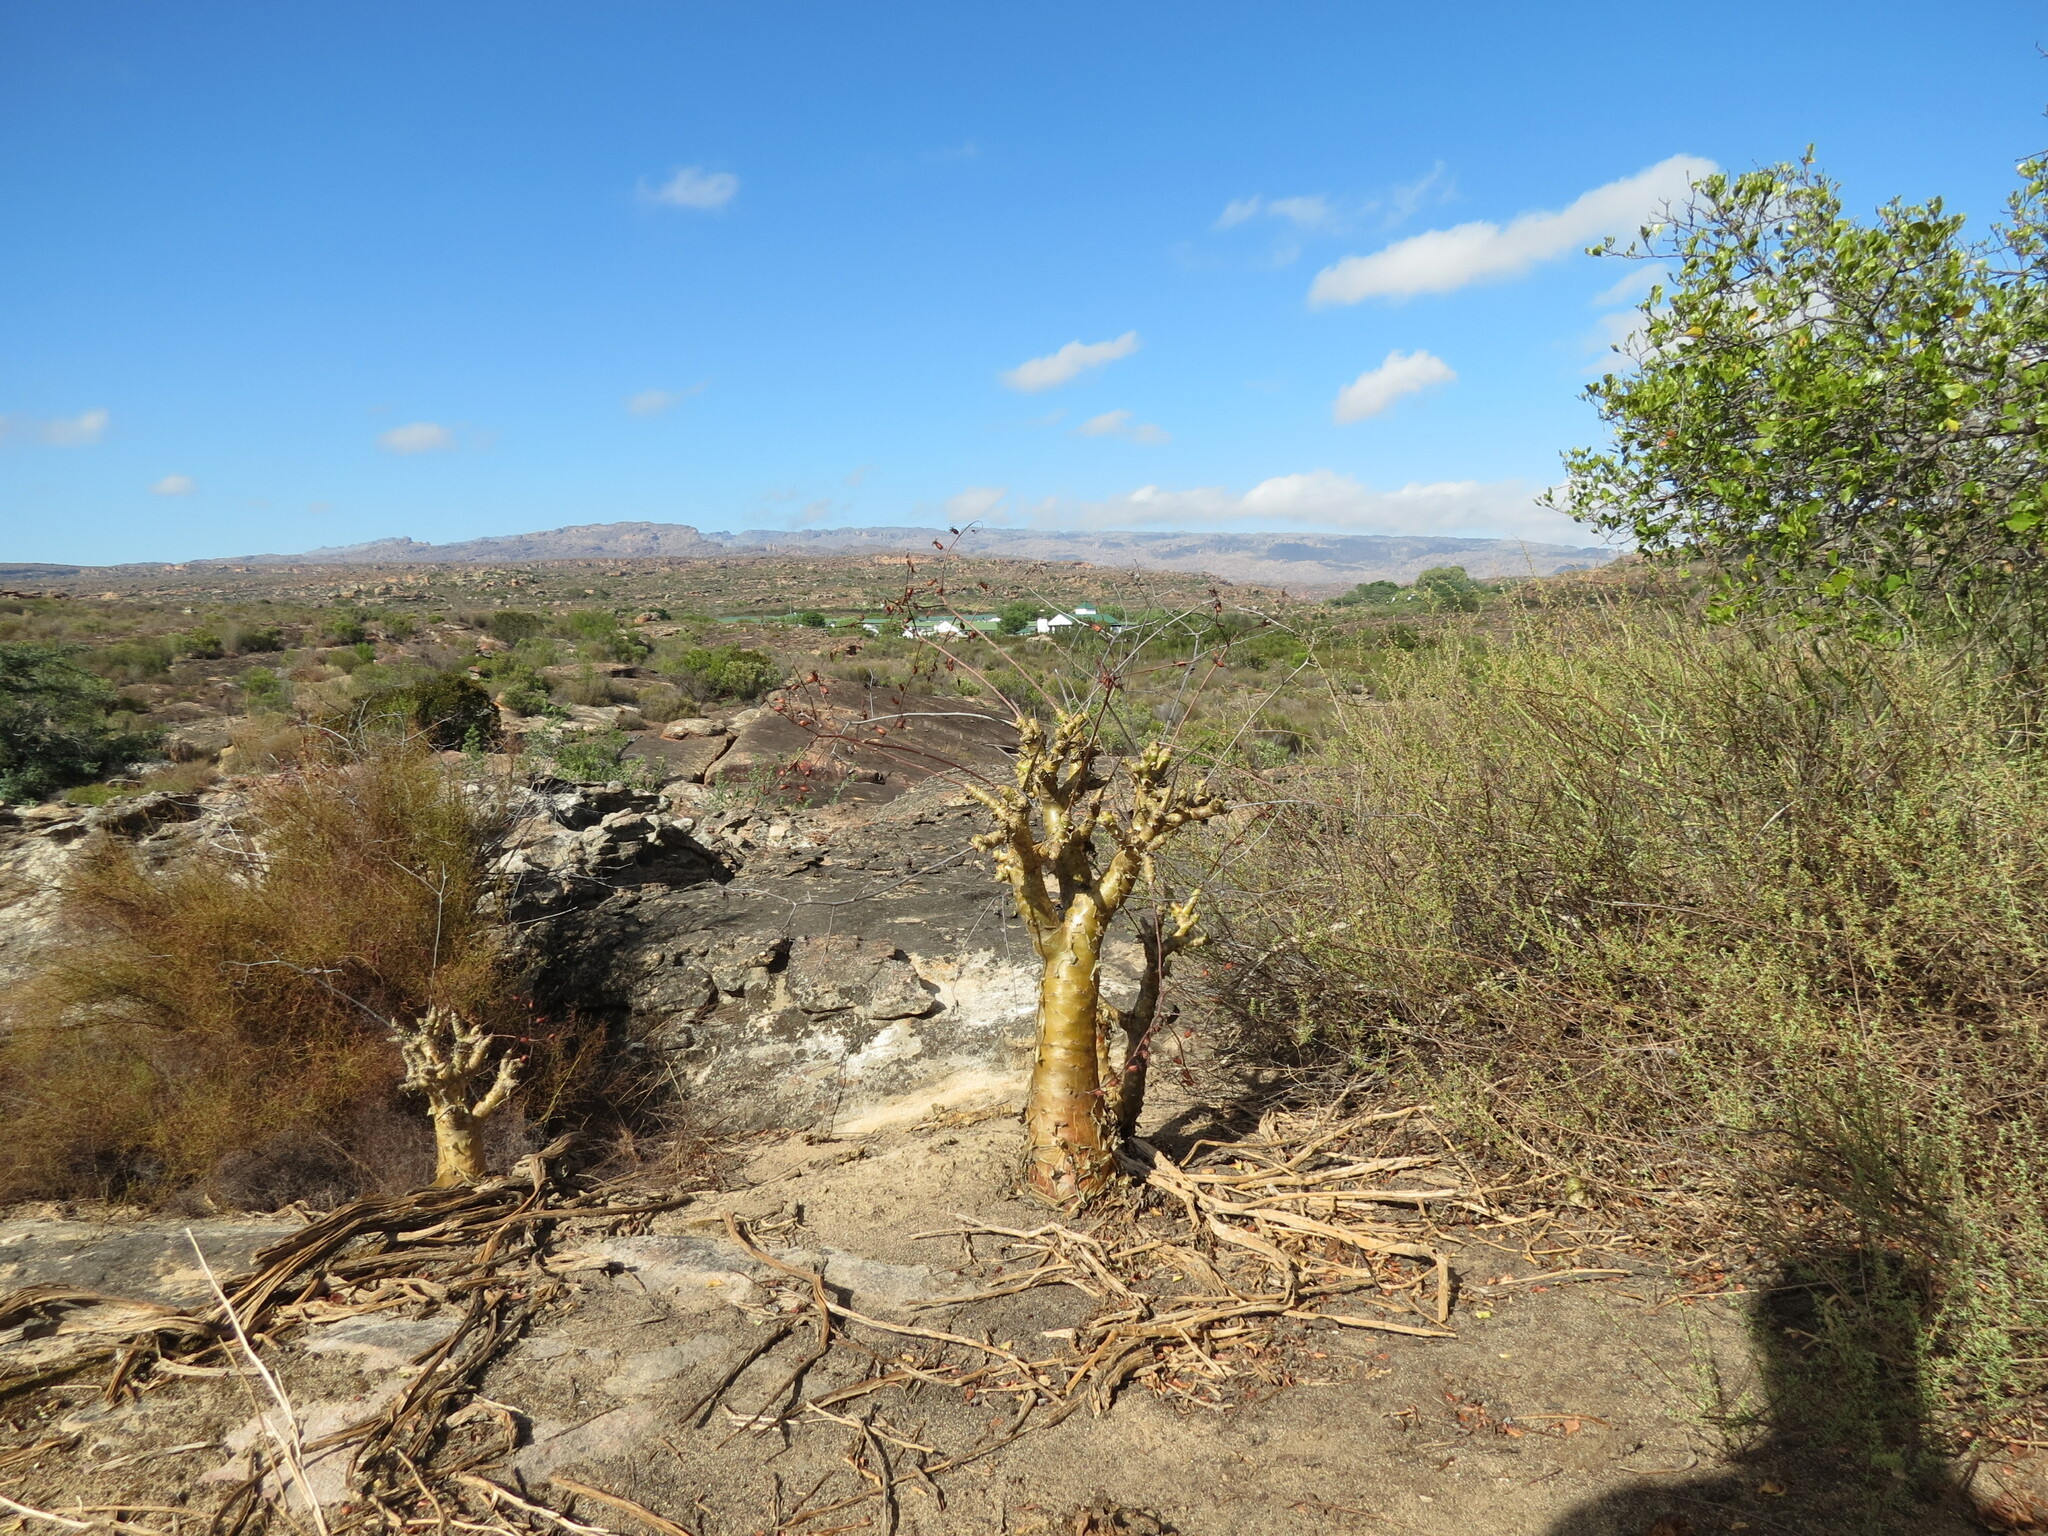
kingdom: Plantae
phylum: Tracheophyta
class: Magnoliopsida
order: Saxifragales
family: Crassulaceae
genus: Tylecodon
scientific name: Tylecodon paniculatus
